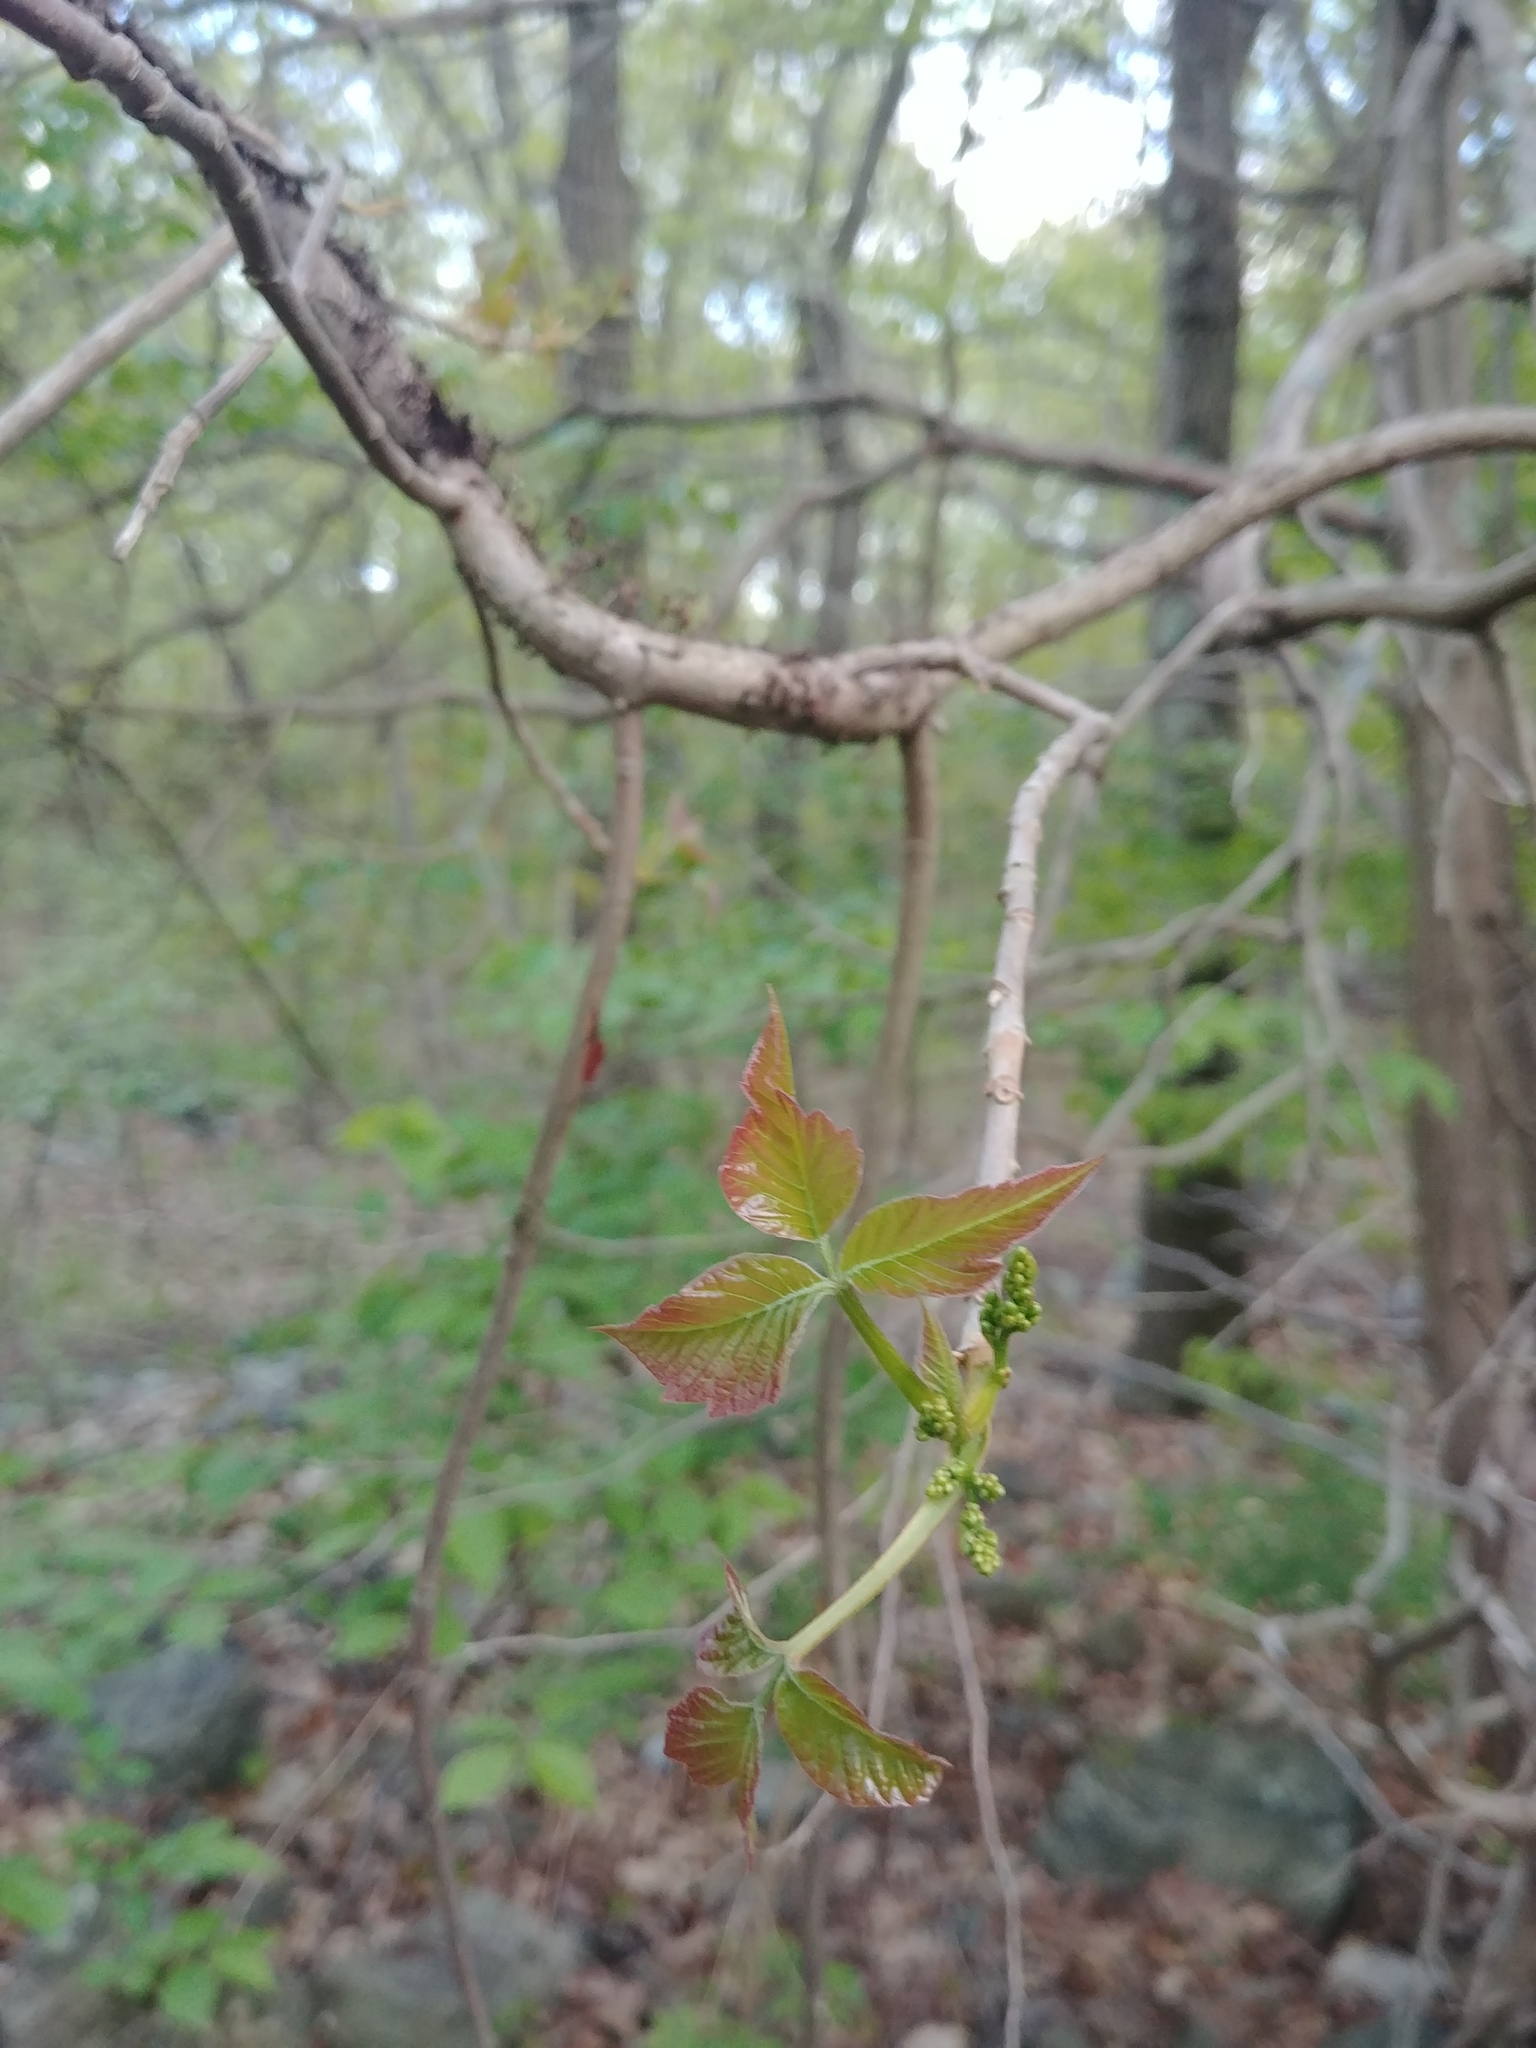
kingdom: Plantae
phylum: Tracheophyta
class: Magnoliopsida
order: Sapindales
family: Anacardiaceae
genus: Toxicodendron
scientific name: Toxicodendron radicans
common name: Poison ivy
